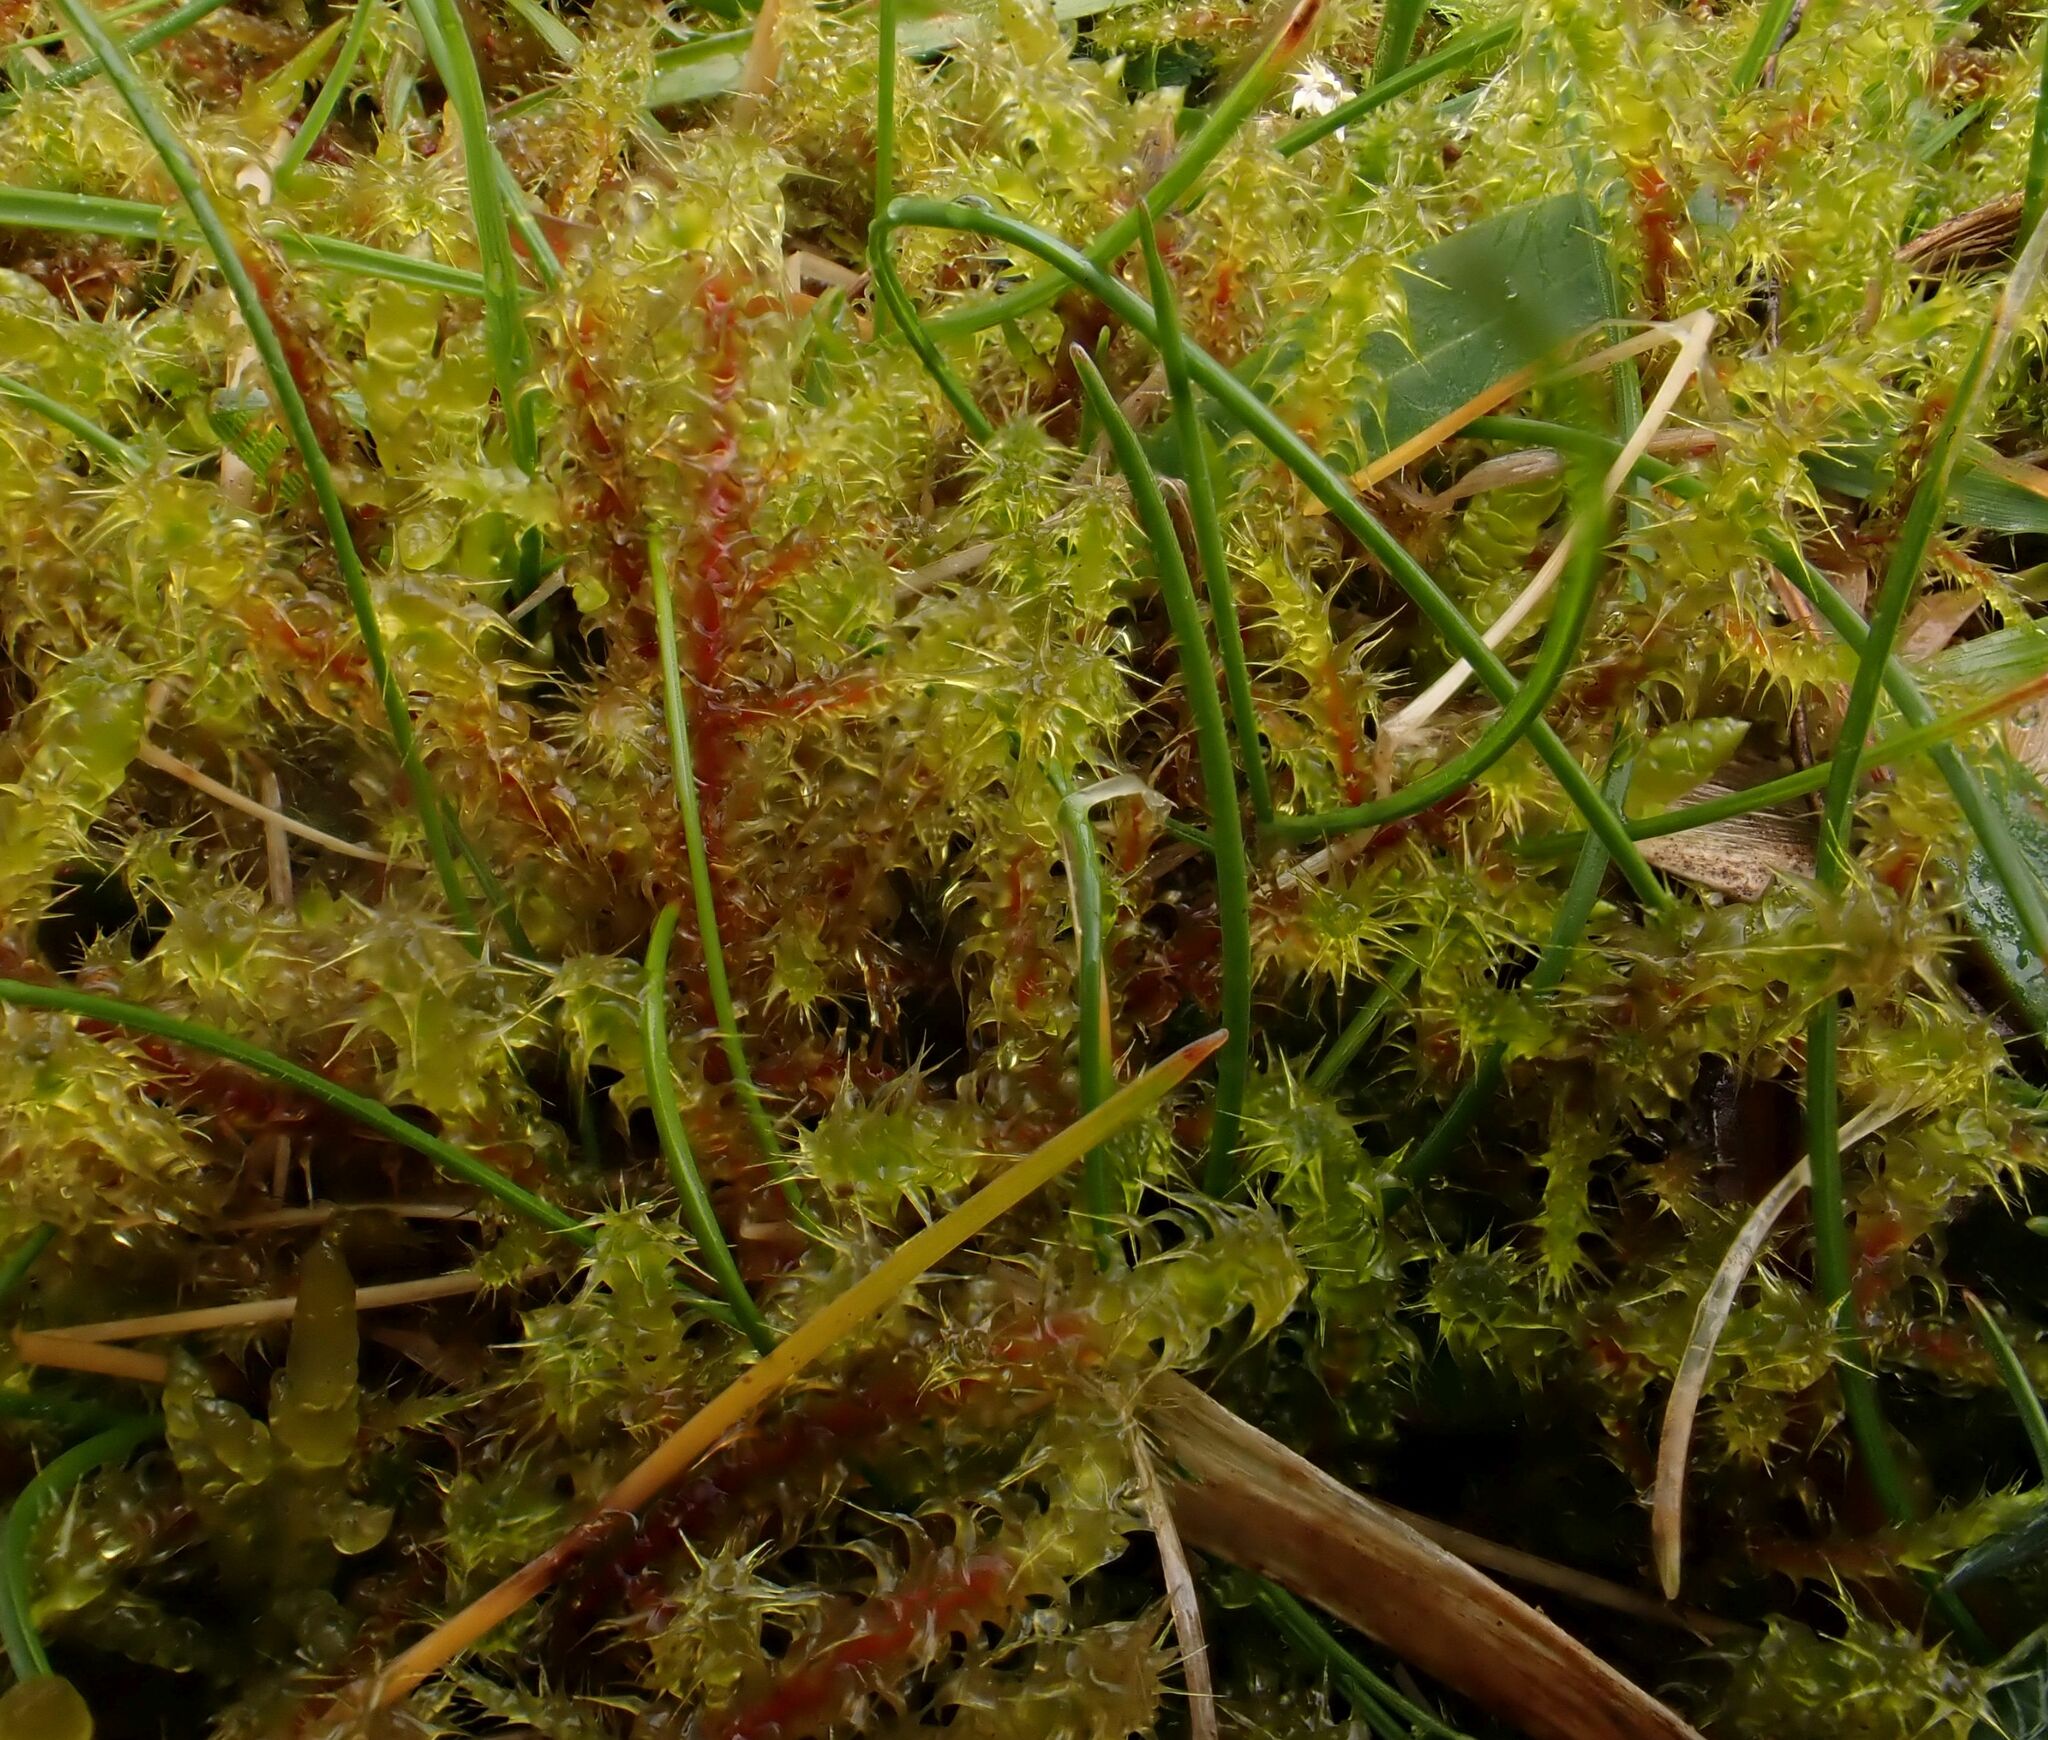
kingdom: Plantae
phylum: Bryophyta
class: Bryopsida
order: Hypnales
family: Hylocomiaceae
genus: Rhytidiadelphus
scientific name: Rhytidiadelphus squarrosus
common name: Springy turf-moss
